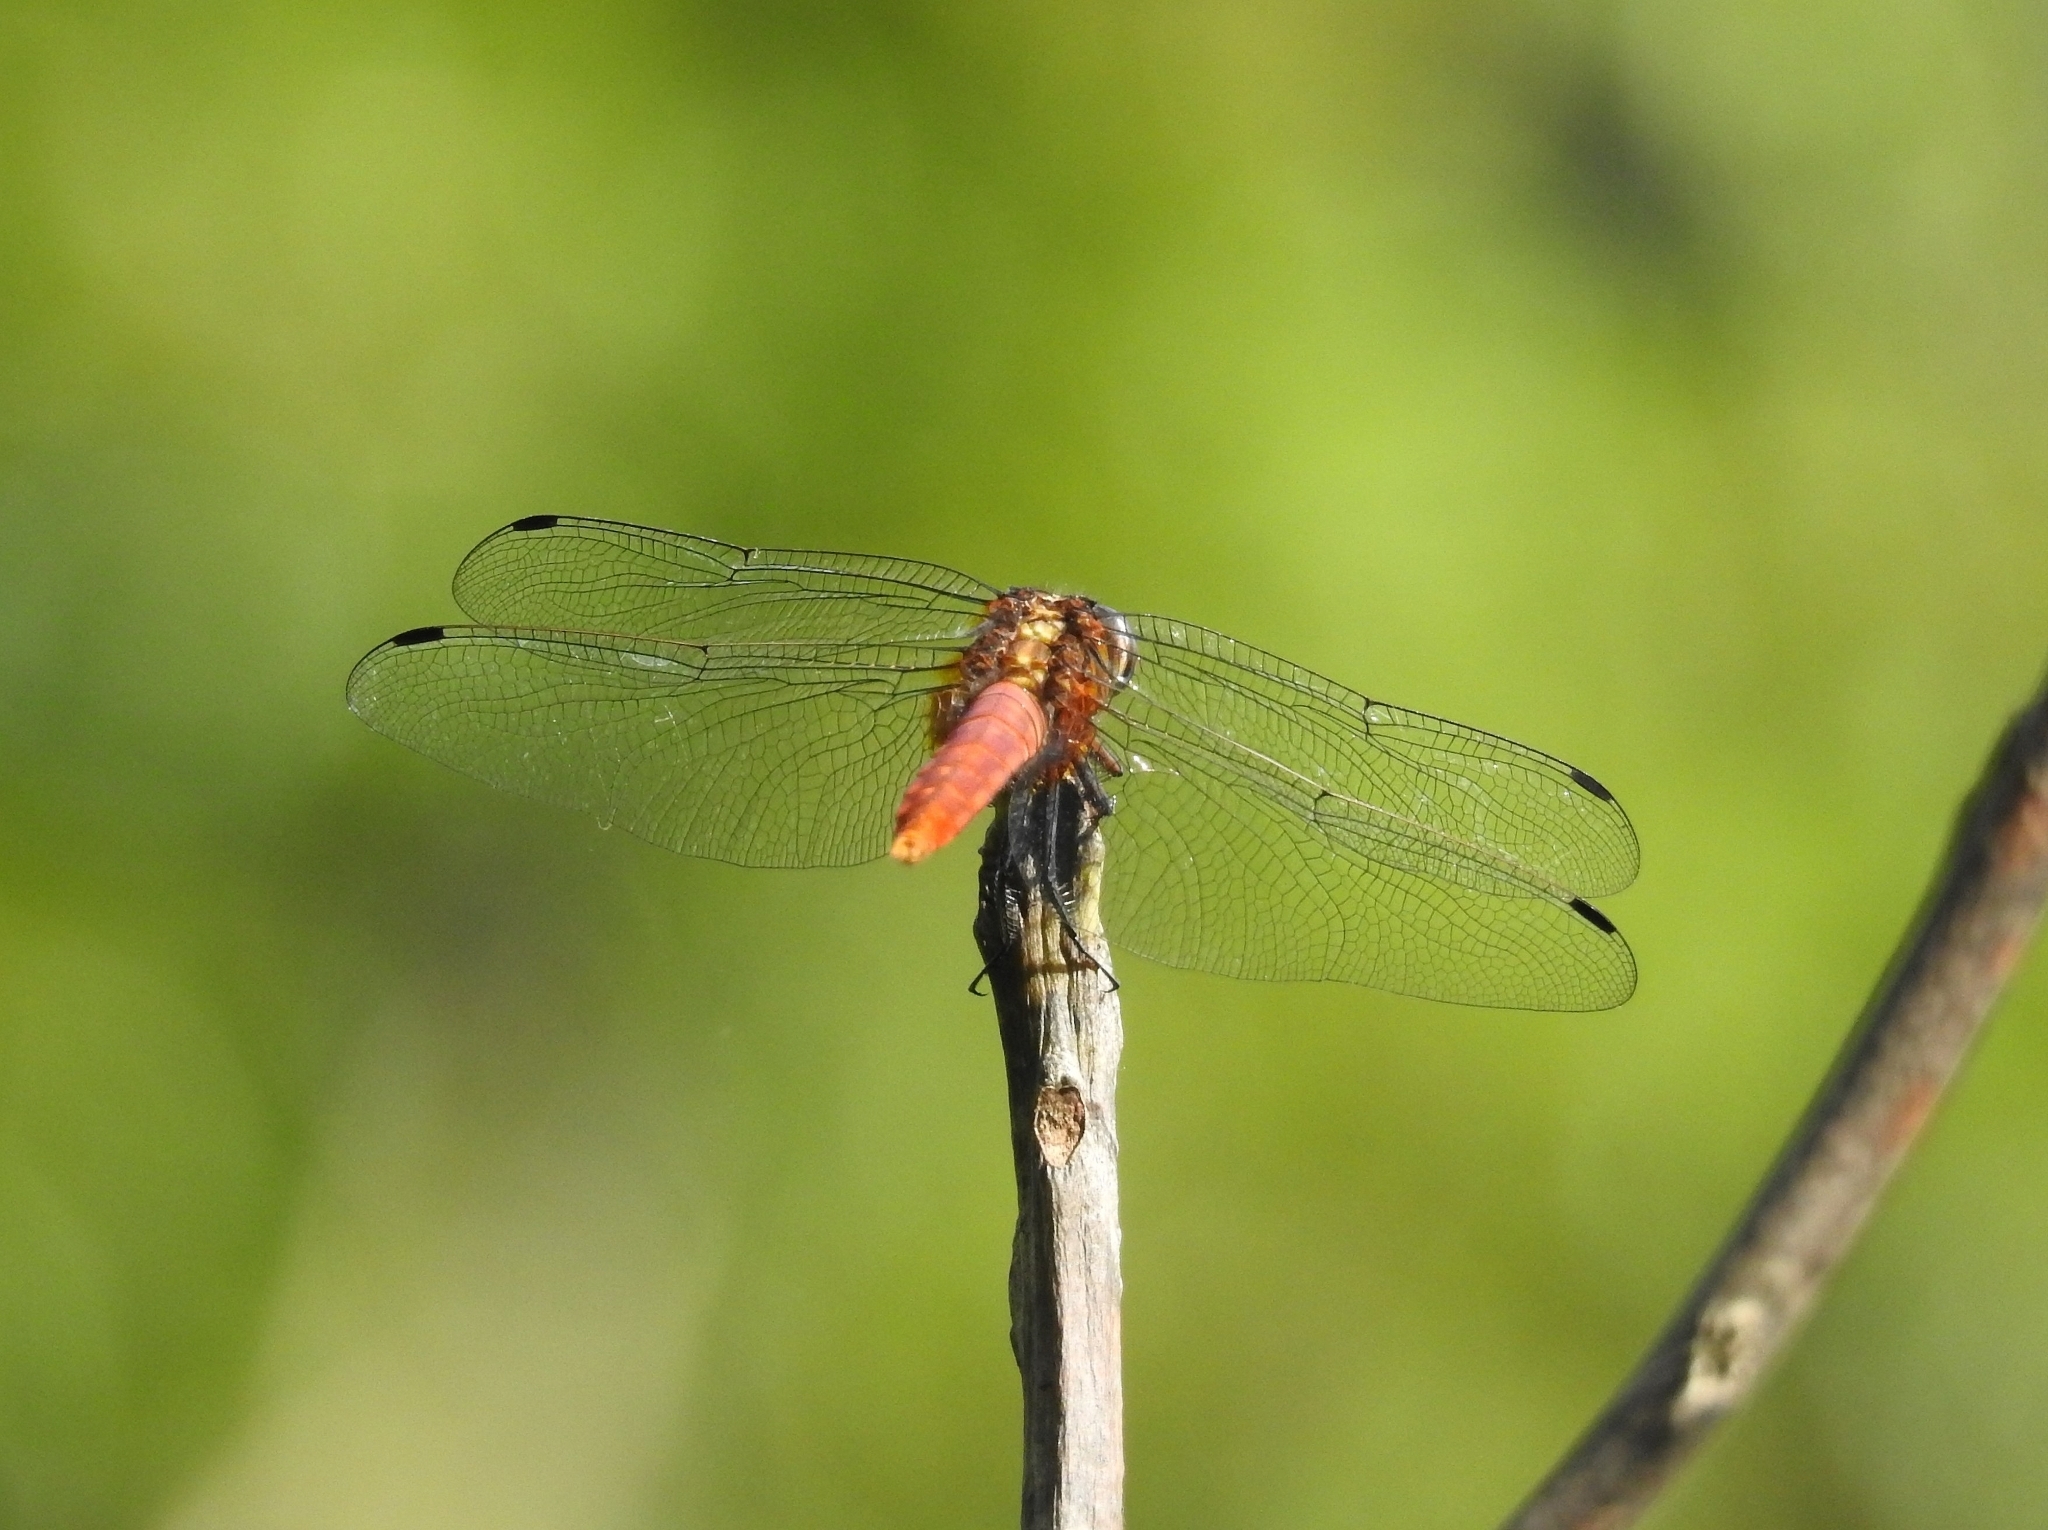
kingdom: Animalia
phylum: Arthropoda
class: Insecta
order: Odonata
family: Libellulidae
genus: Orthetrum
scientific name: Orthetrum chrysis
